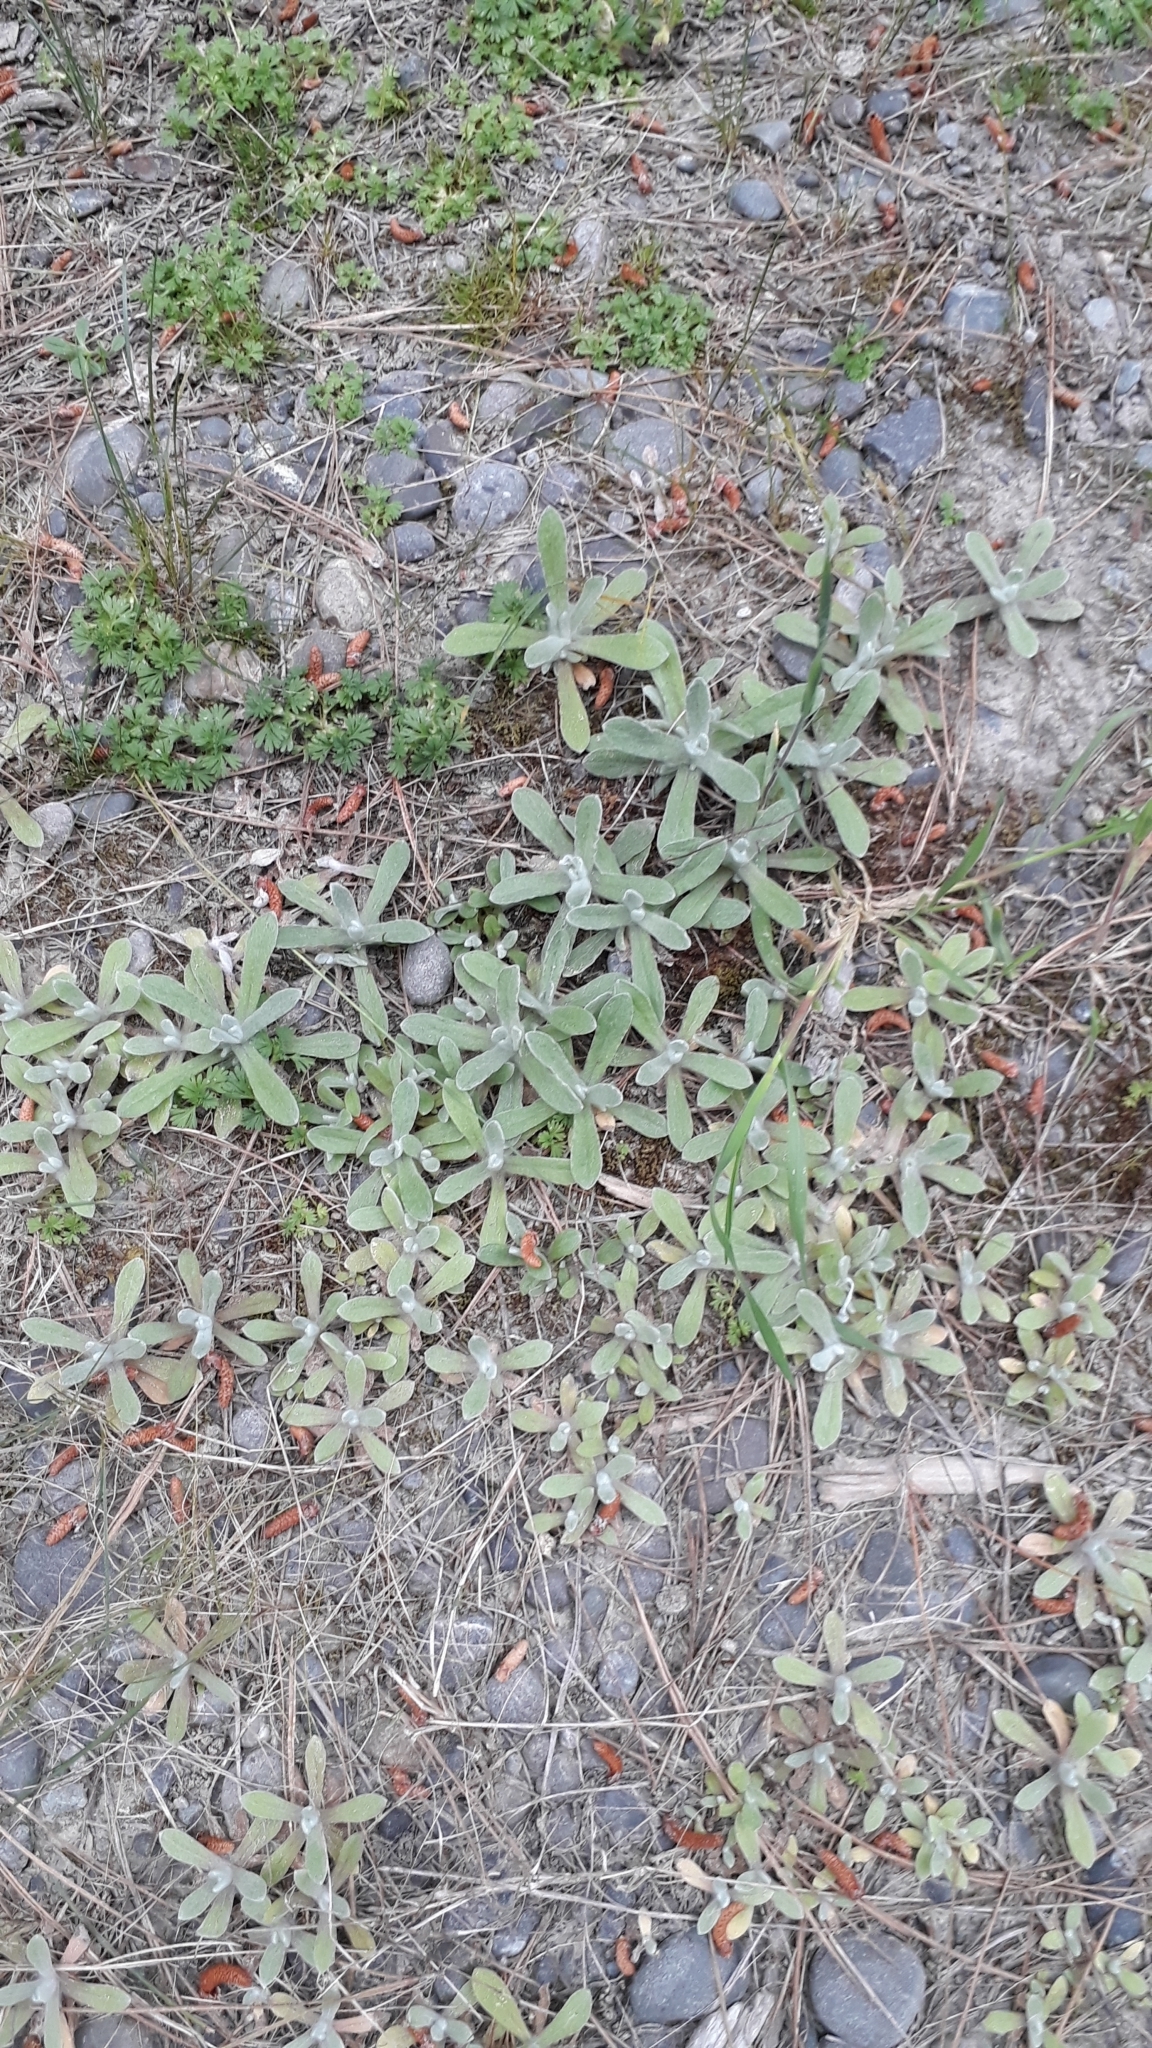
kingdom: Plantae
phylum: Tracheophyta
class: Magnoliopsida
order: Asterales
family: Asteraceae
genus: Helichrysum
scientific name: Helichrysum luteoalbum
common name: Daisy
